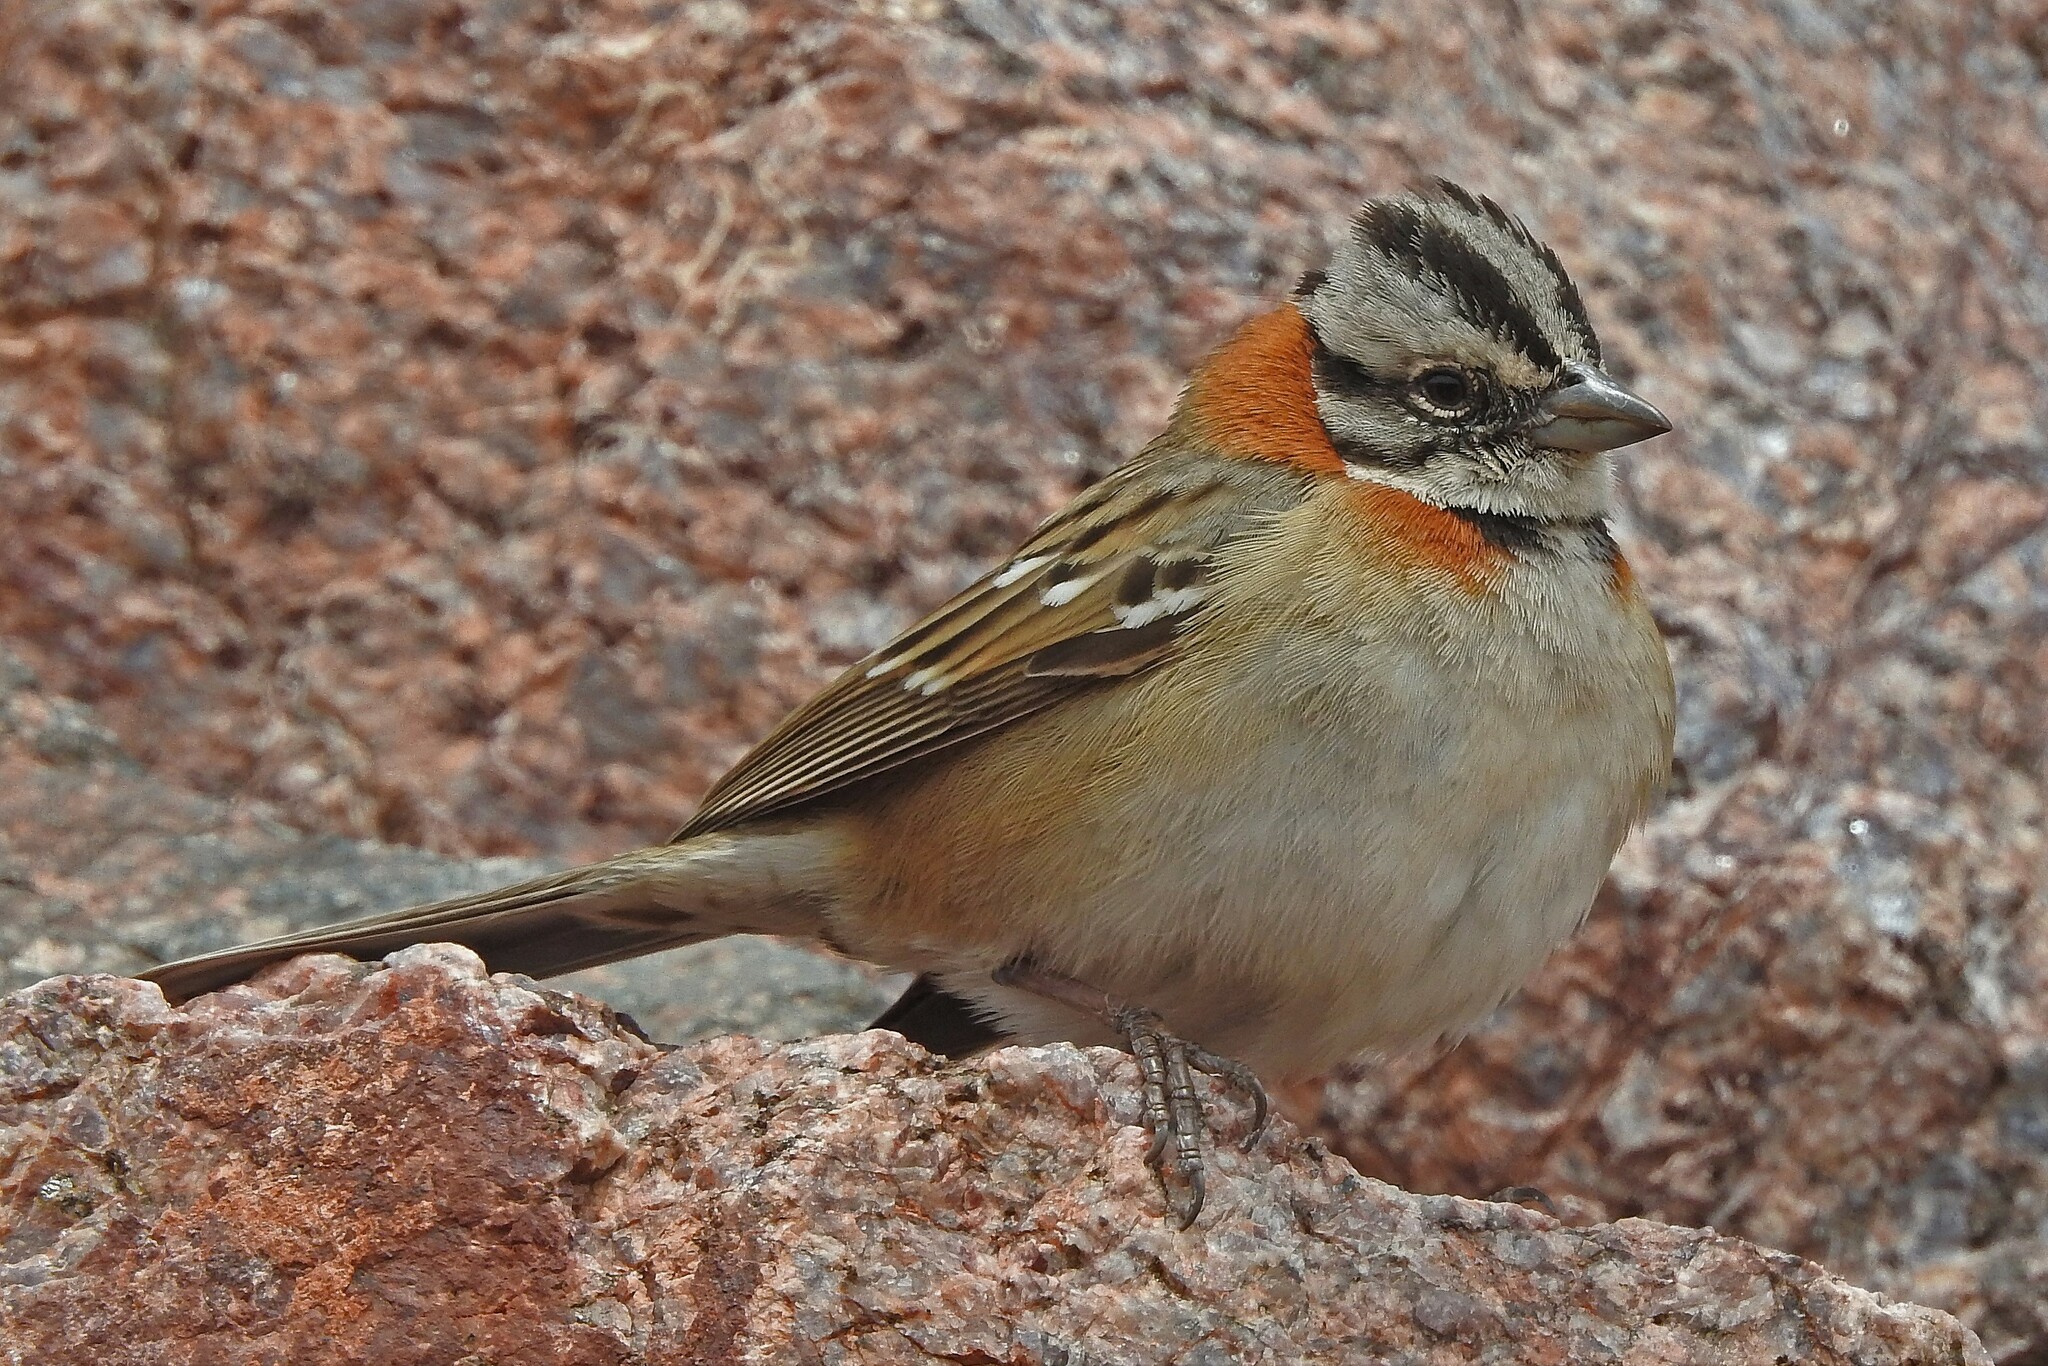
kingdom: Animalia
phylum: Chordata
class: Aves
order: Passeriformes
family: Passerellidae
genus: Zonotrichia
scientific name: Zonotrichia capensis
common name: Rufous-collared sparrow
